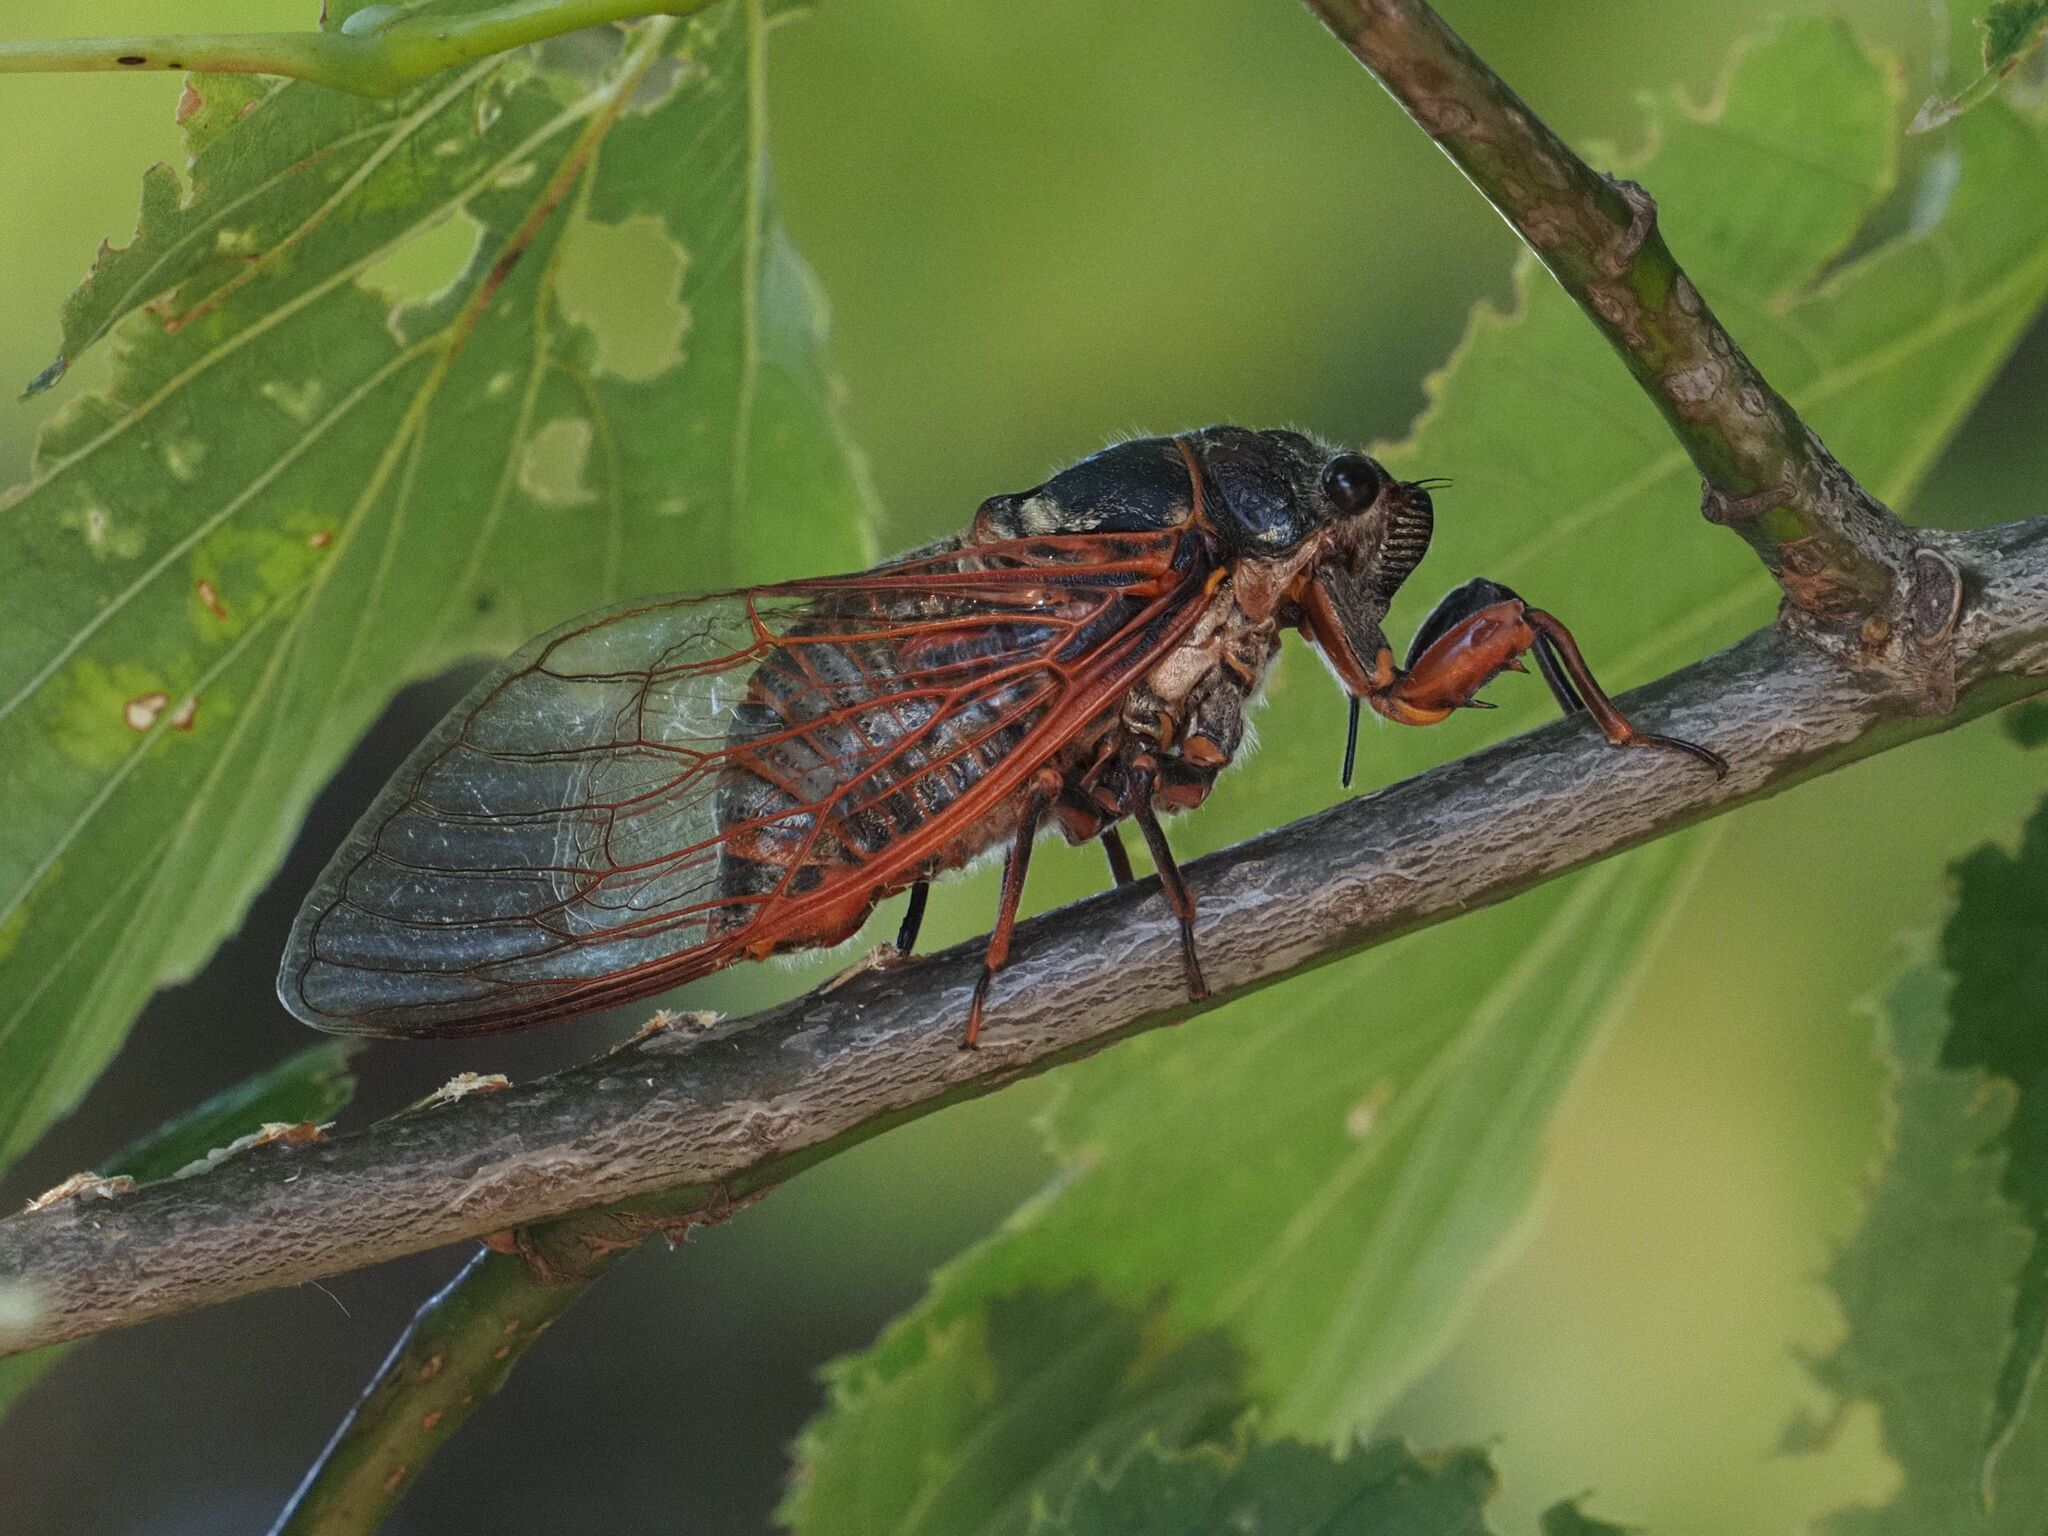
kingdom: Animalia
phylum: Arthropoda
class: Insecta
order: Hemiptera
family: Cicadidae
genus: Tibicina
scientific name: Tibicina haematodes
